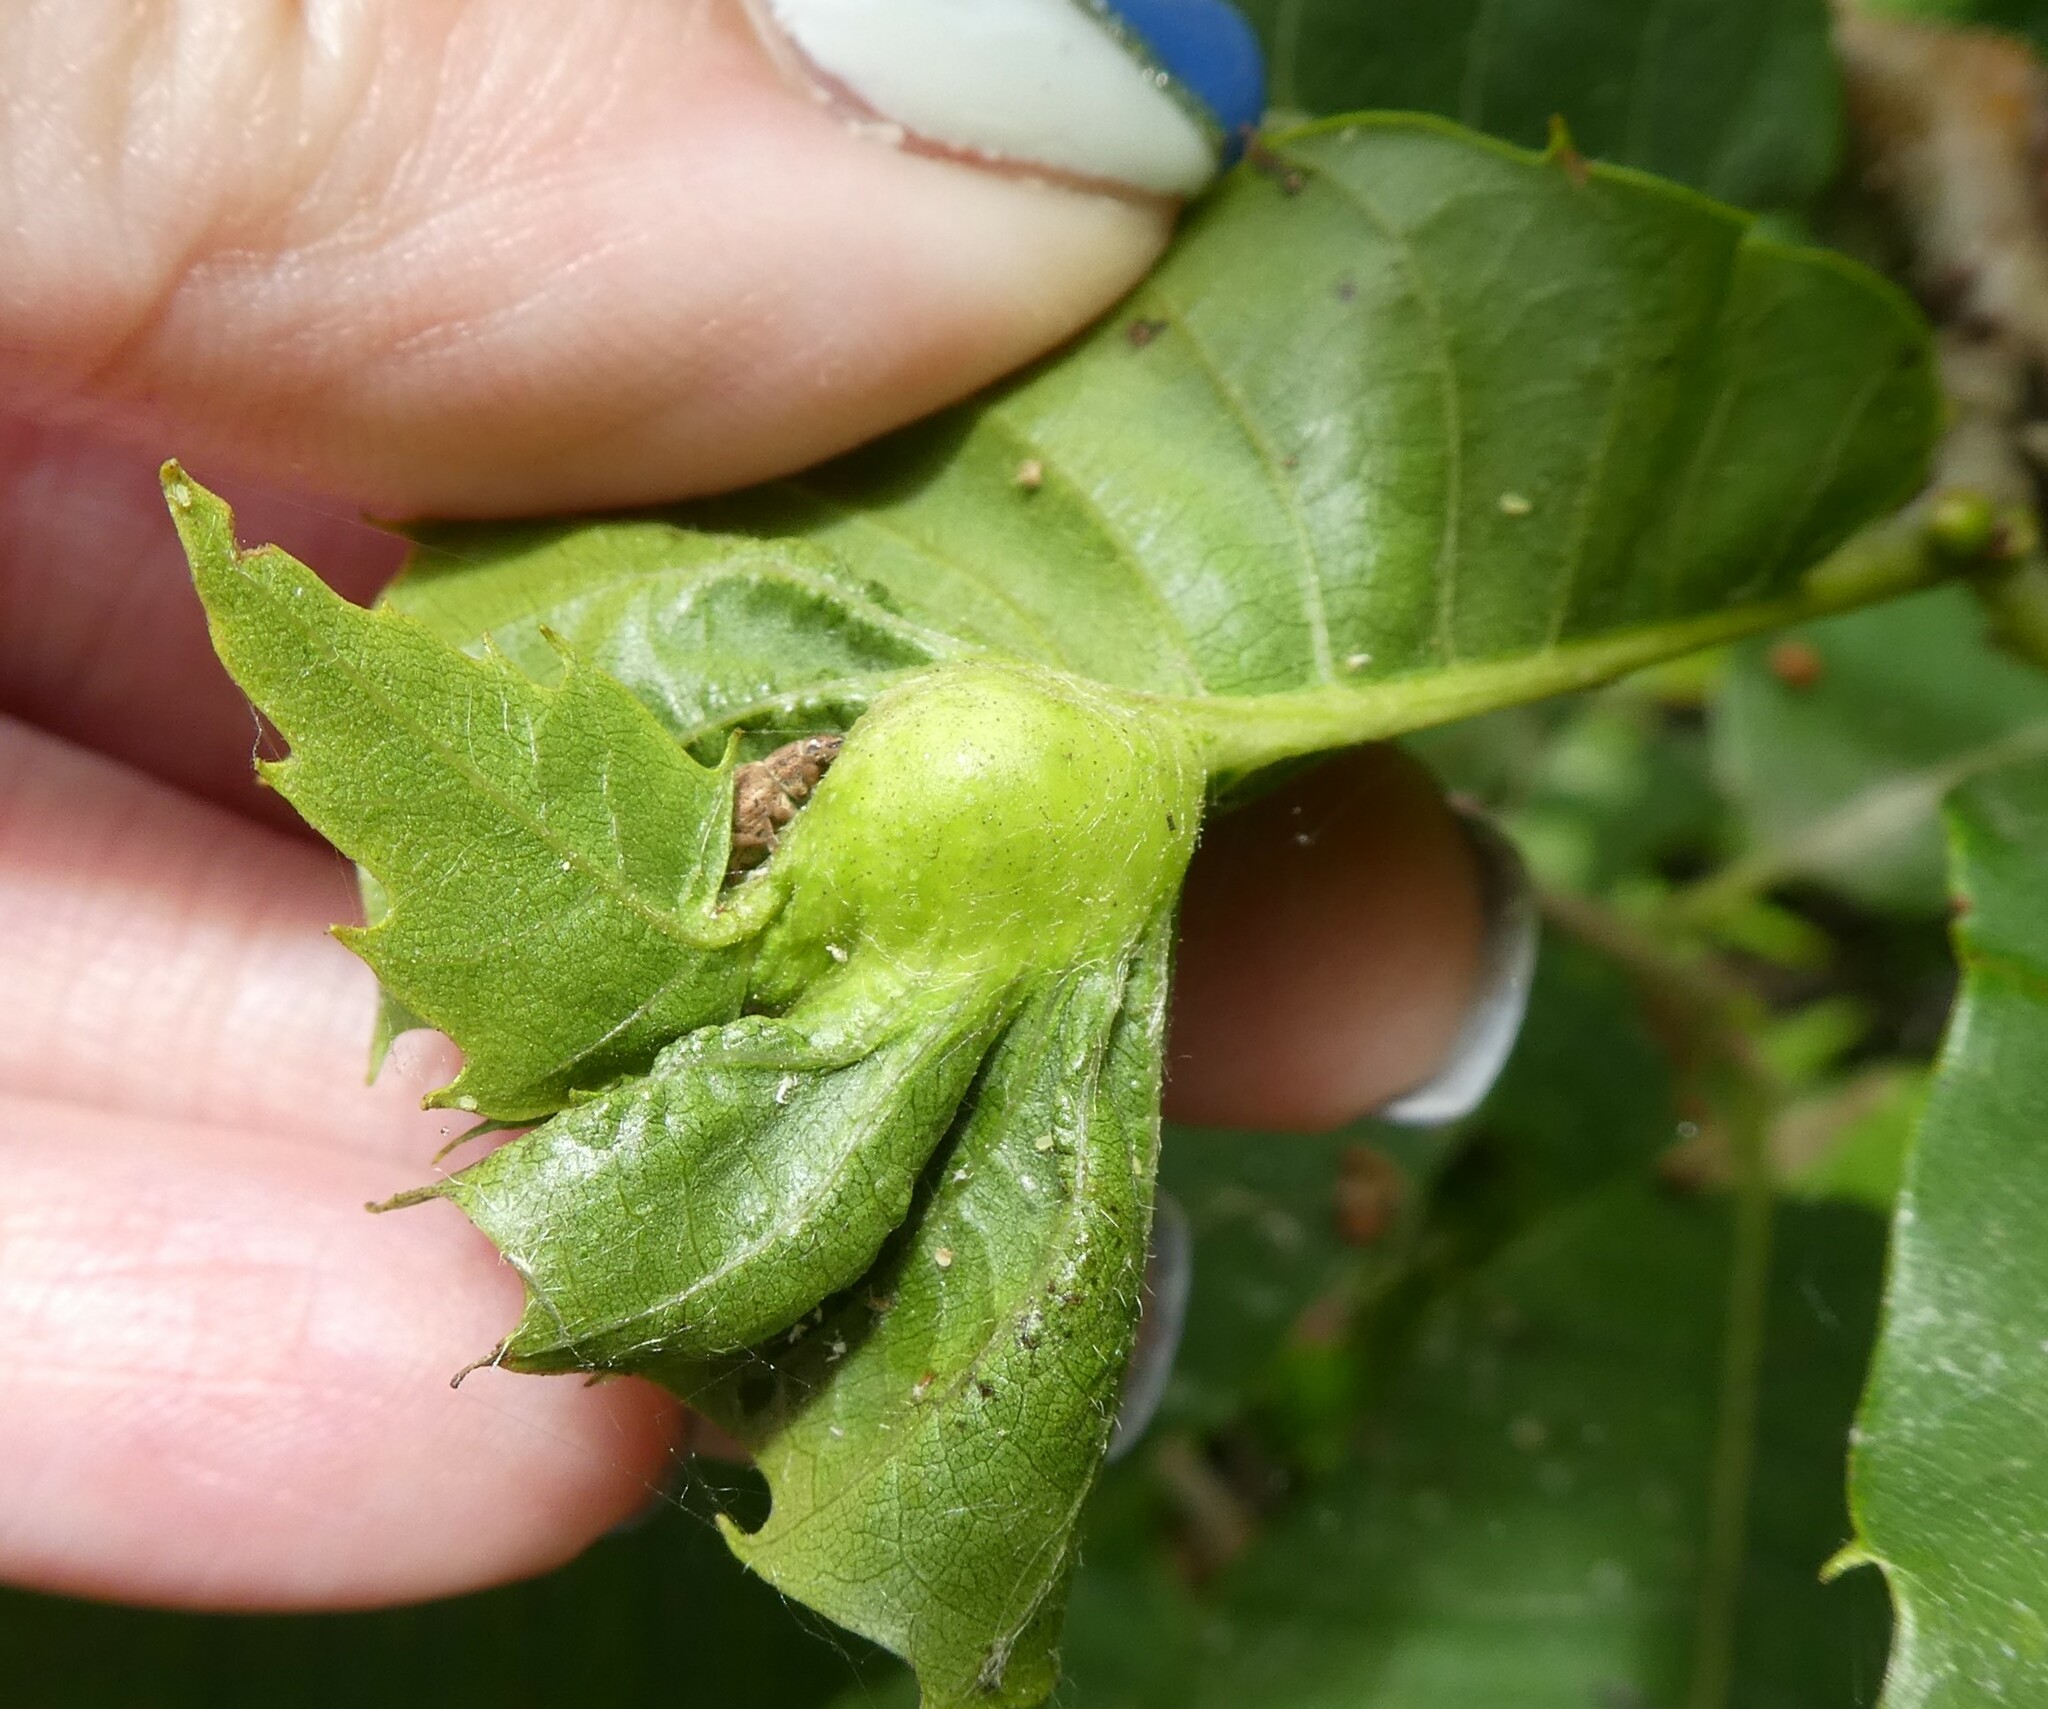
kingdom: Animalia
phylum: Arthropoda
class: Insecta
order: Hymenoptera
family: Cynipidae
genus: Dryocosmus
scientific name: Dryocosmus kuriphilus
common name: Asian chestnut gall wasp
